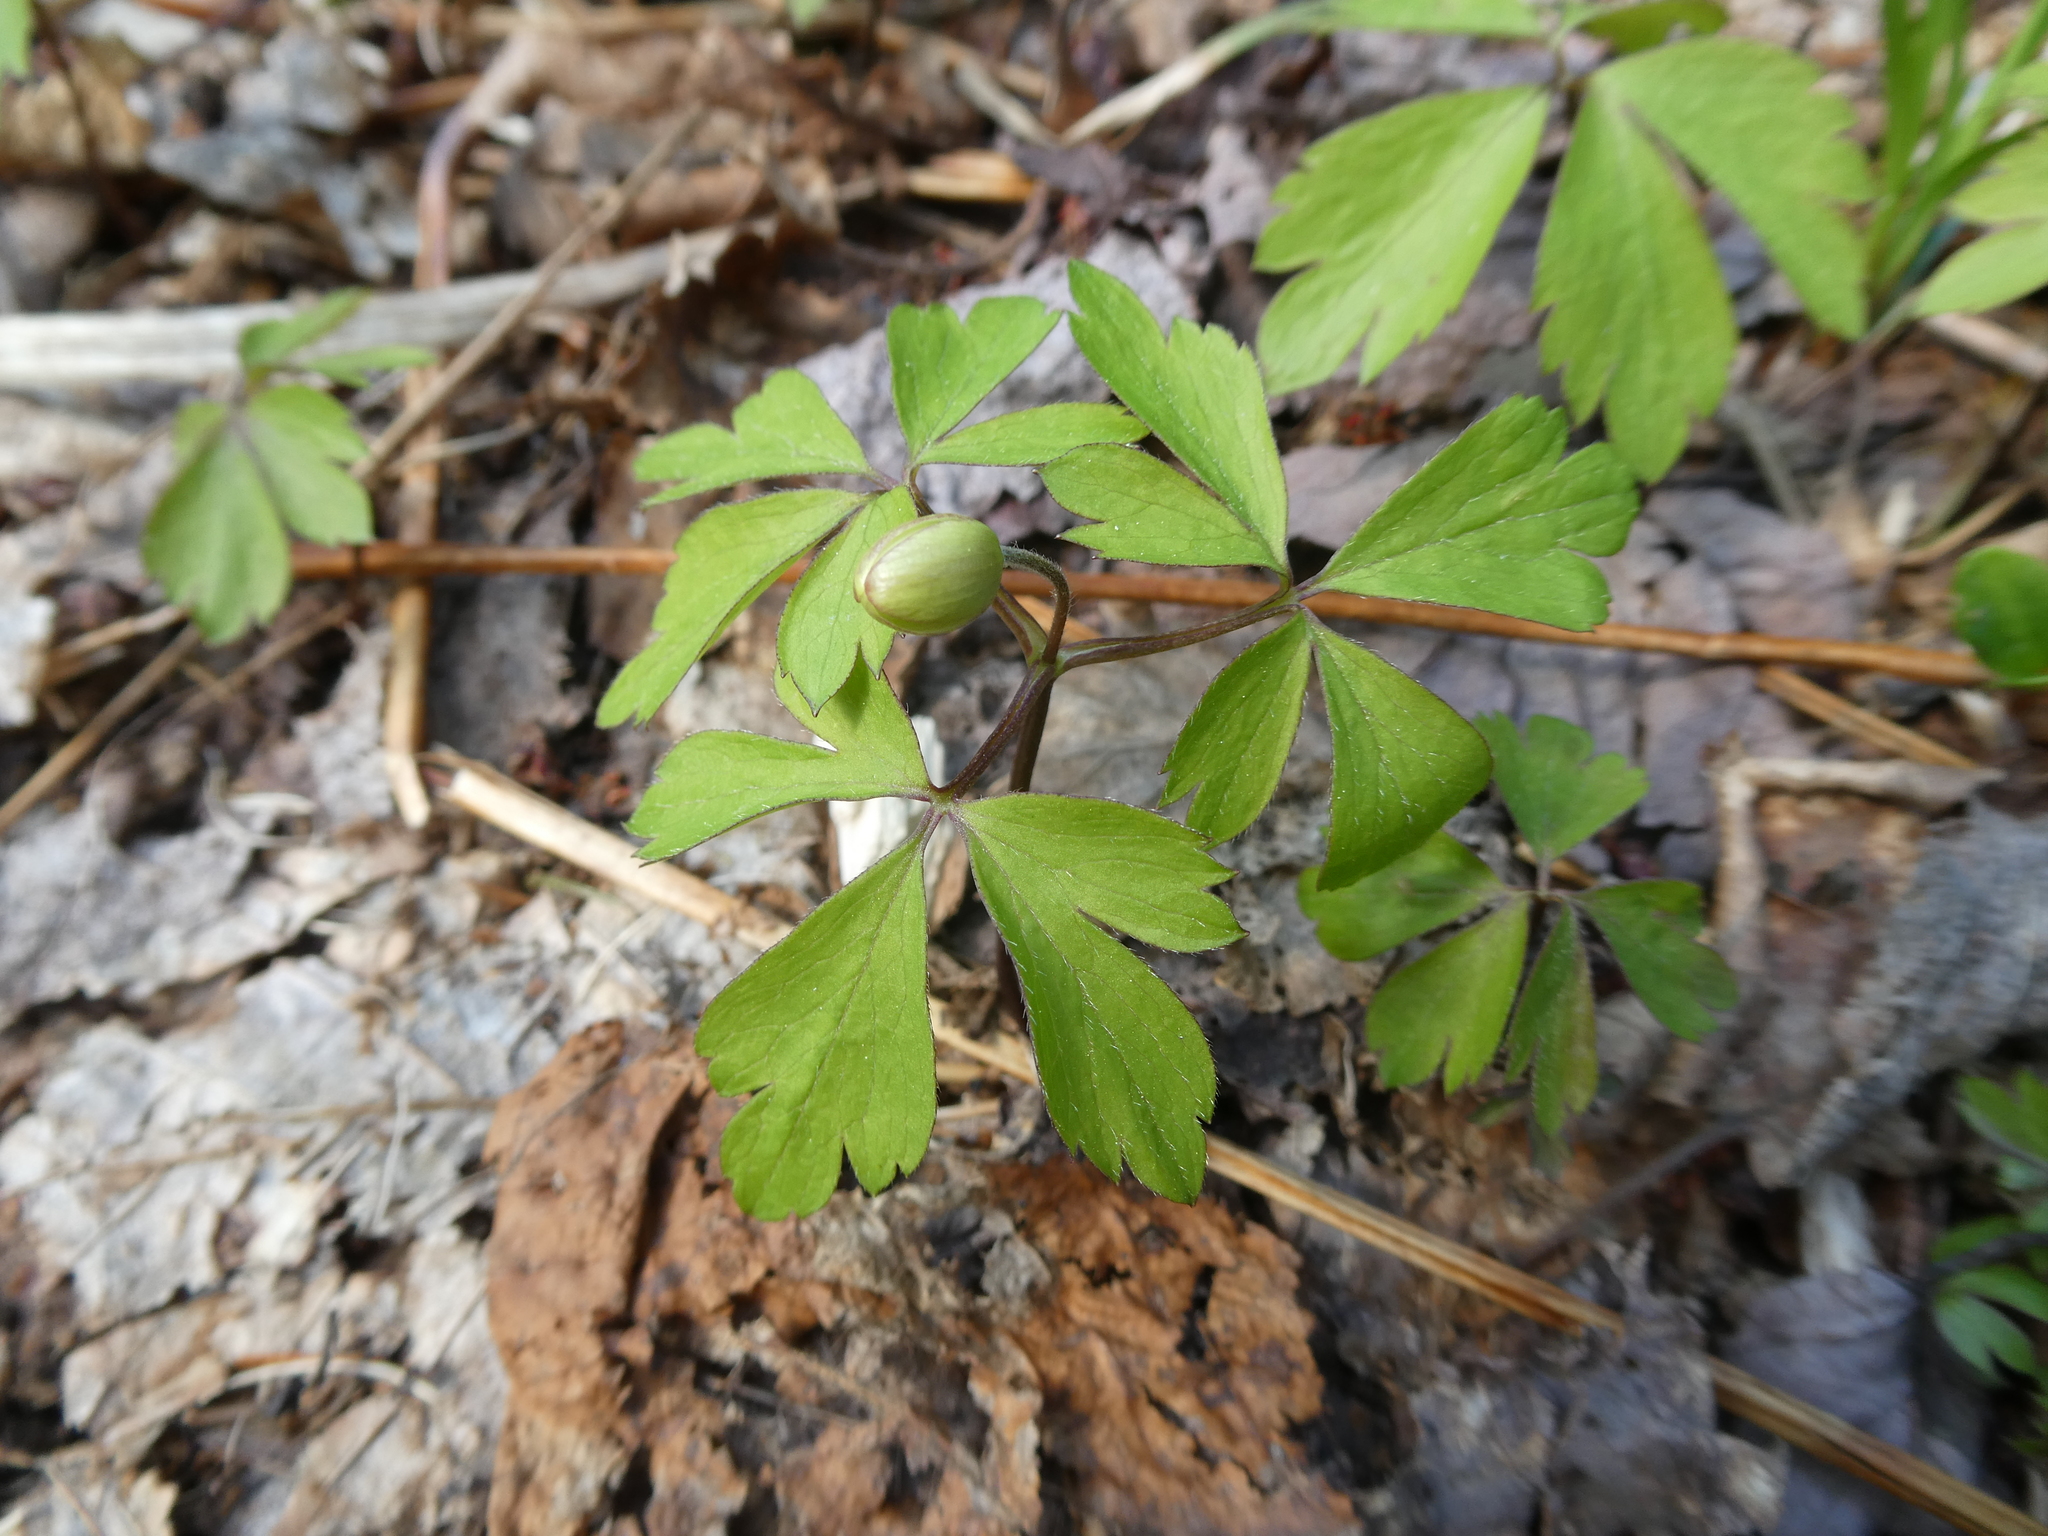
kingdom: Plantae
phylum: Tracheophyta
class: Magnoliopsida
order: Ranunculales
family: Ranunculaceae
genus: Anemone
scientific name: Anemone quinquefolia
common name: Wood anemone
